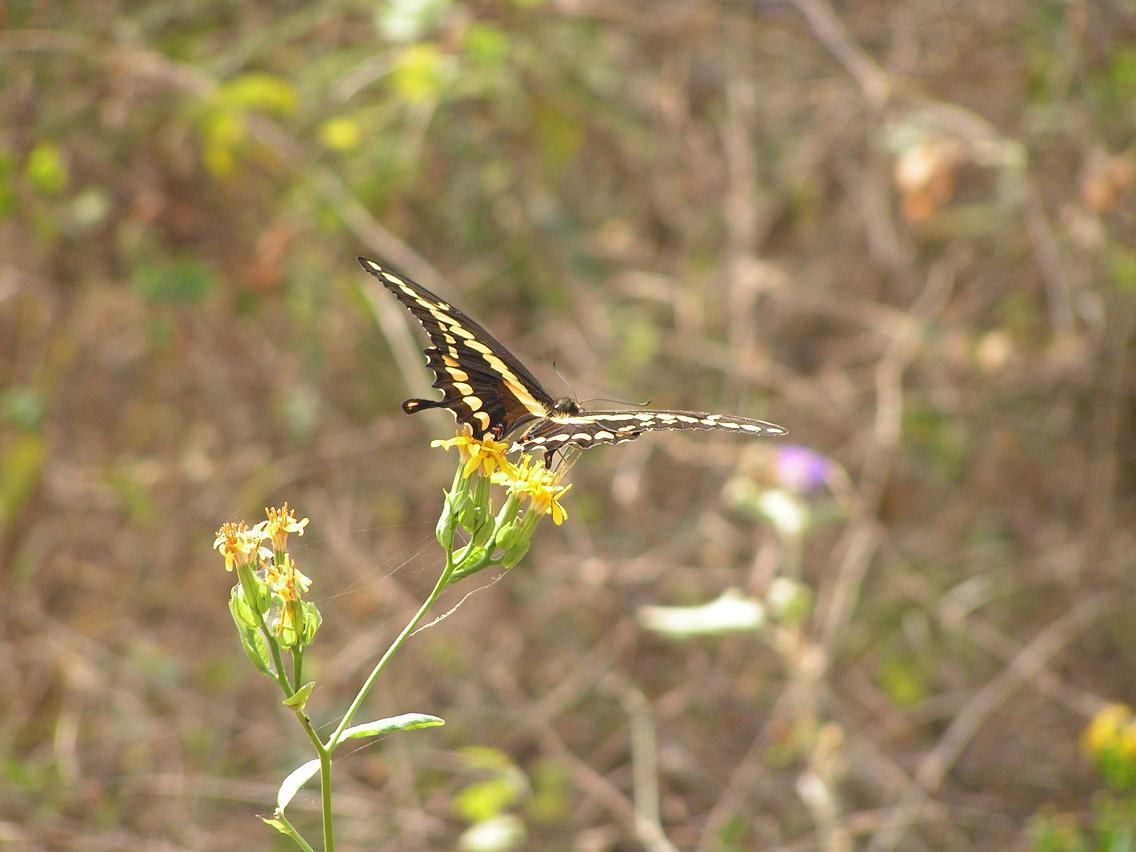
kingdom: Animalia
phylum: Arthropoda
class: Insecta
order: Lepidoptera
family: Papilionidae
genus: Papilio
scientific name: Papilio rumiko
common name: Western giant swallowtail
